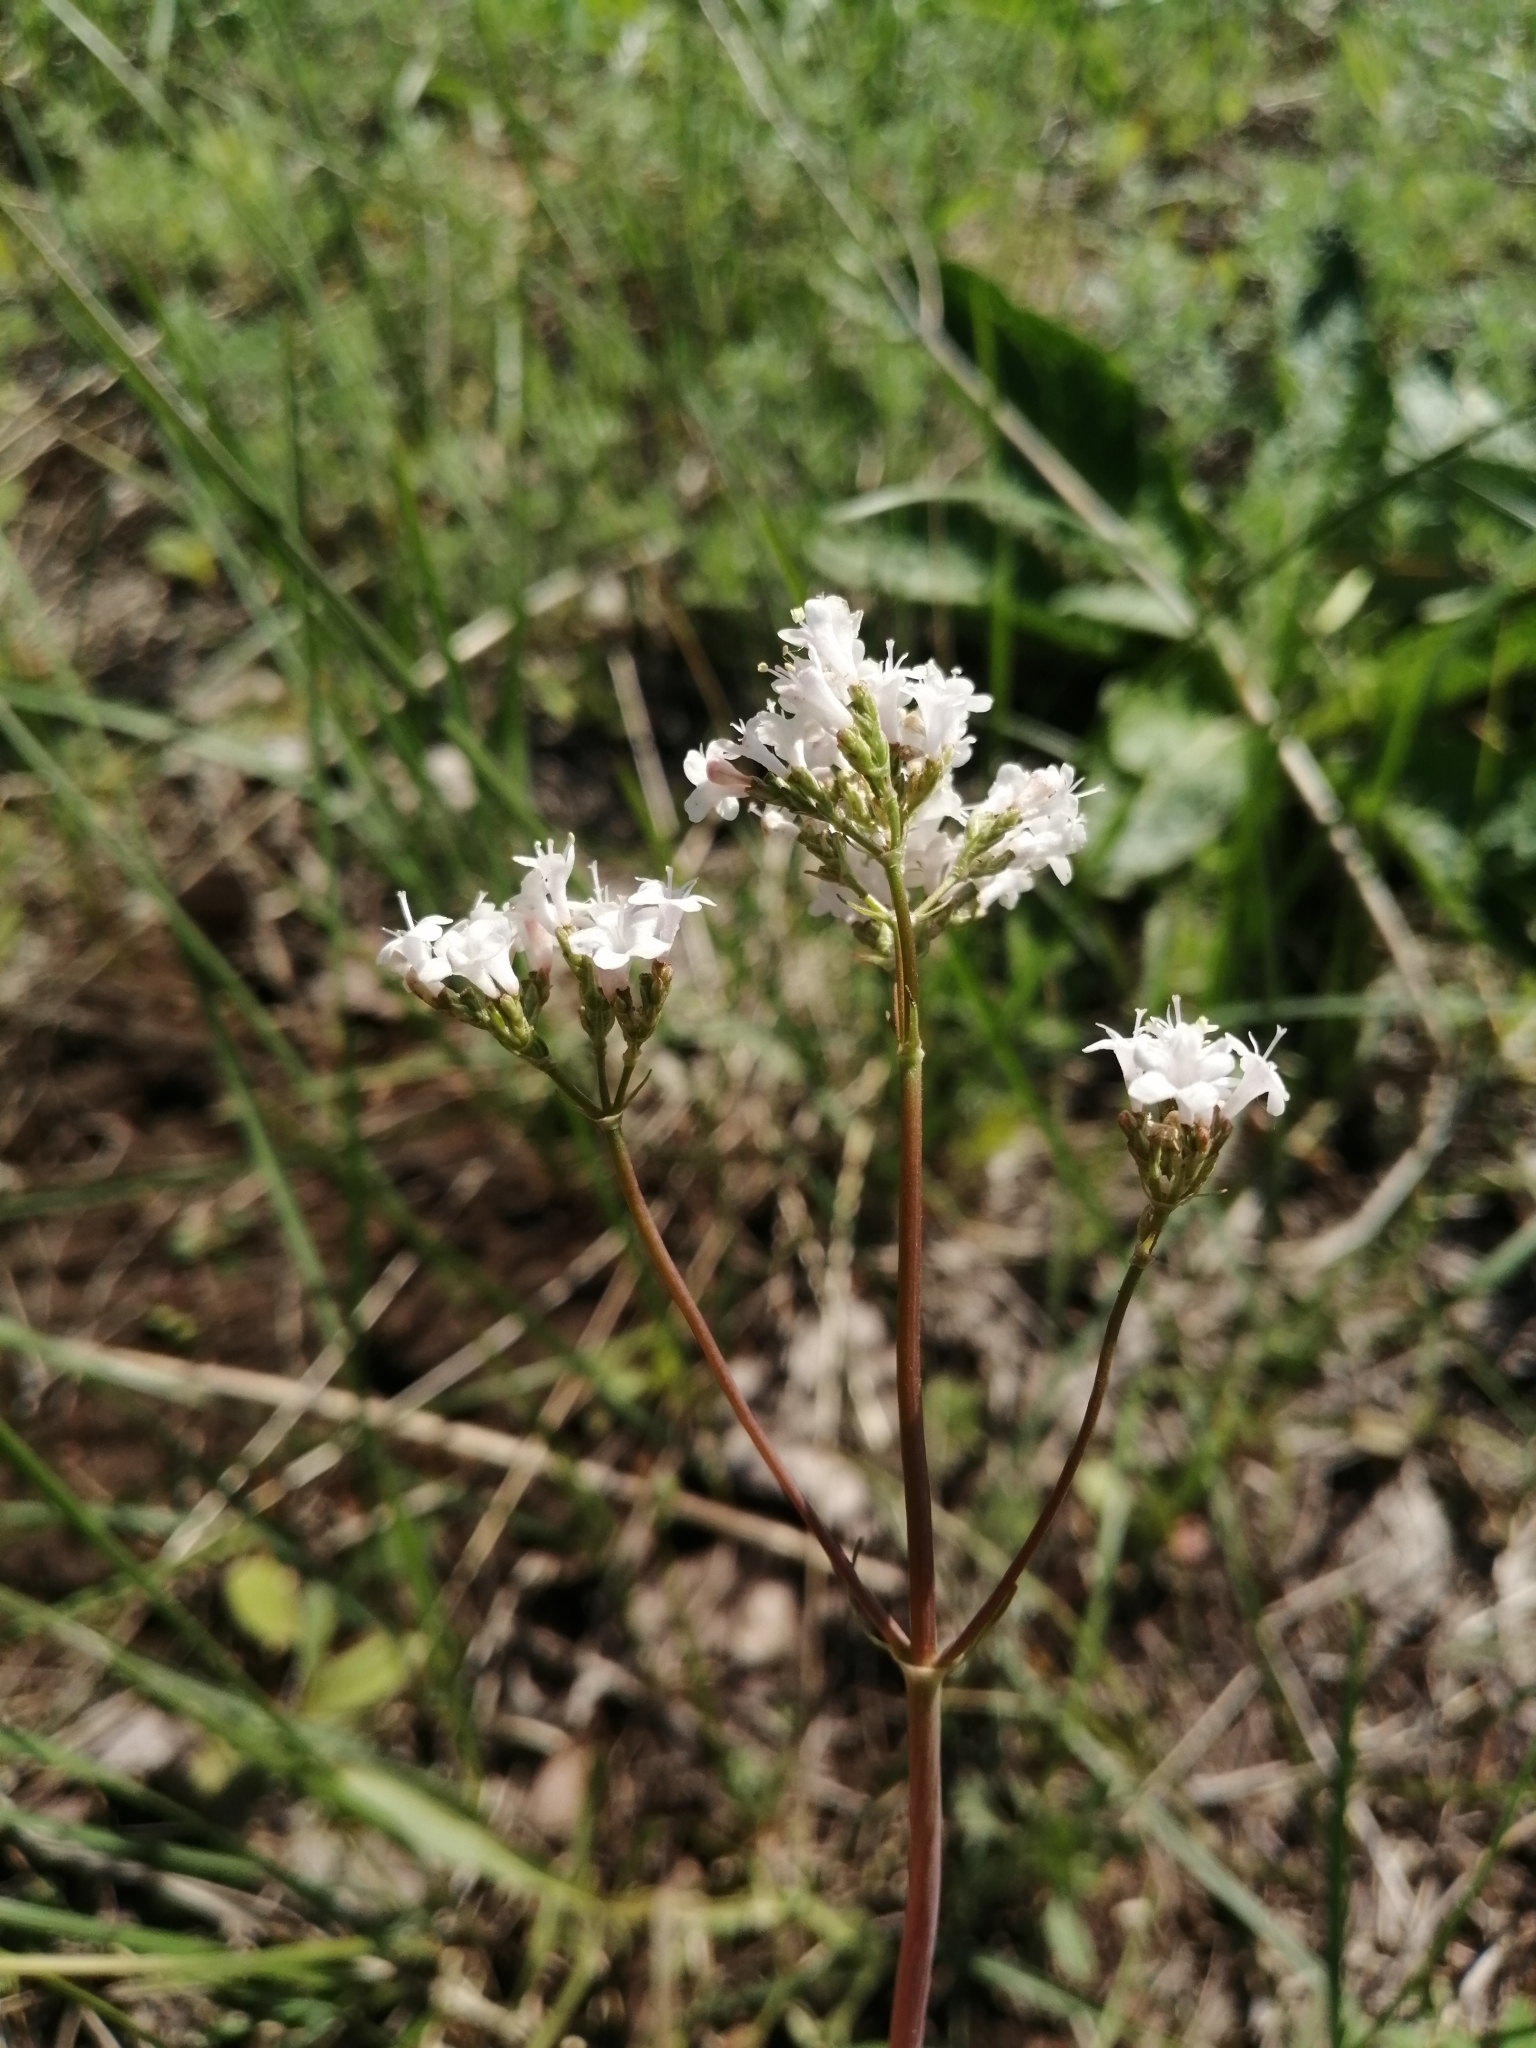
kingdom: Plantae
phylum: Tracheophyta
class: Magnoliopsida
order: Dipsacales
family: Caprifoliaceae
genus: Valeriana
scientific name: Valeriana tuberosa
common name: Tuberous valerian
